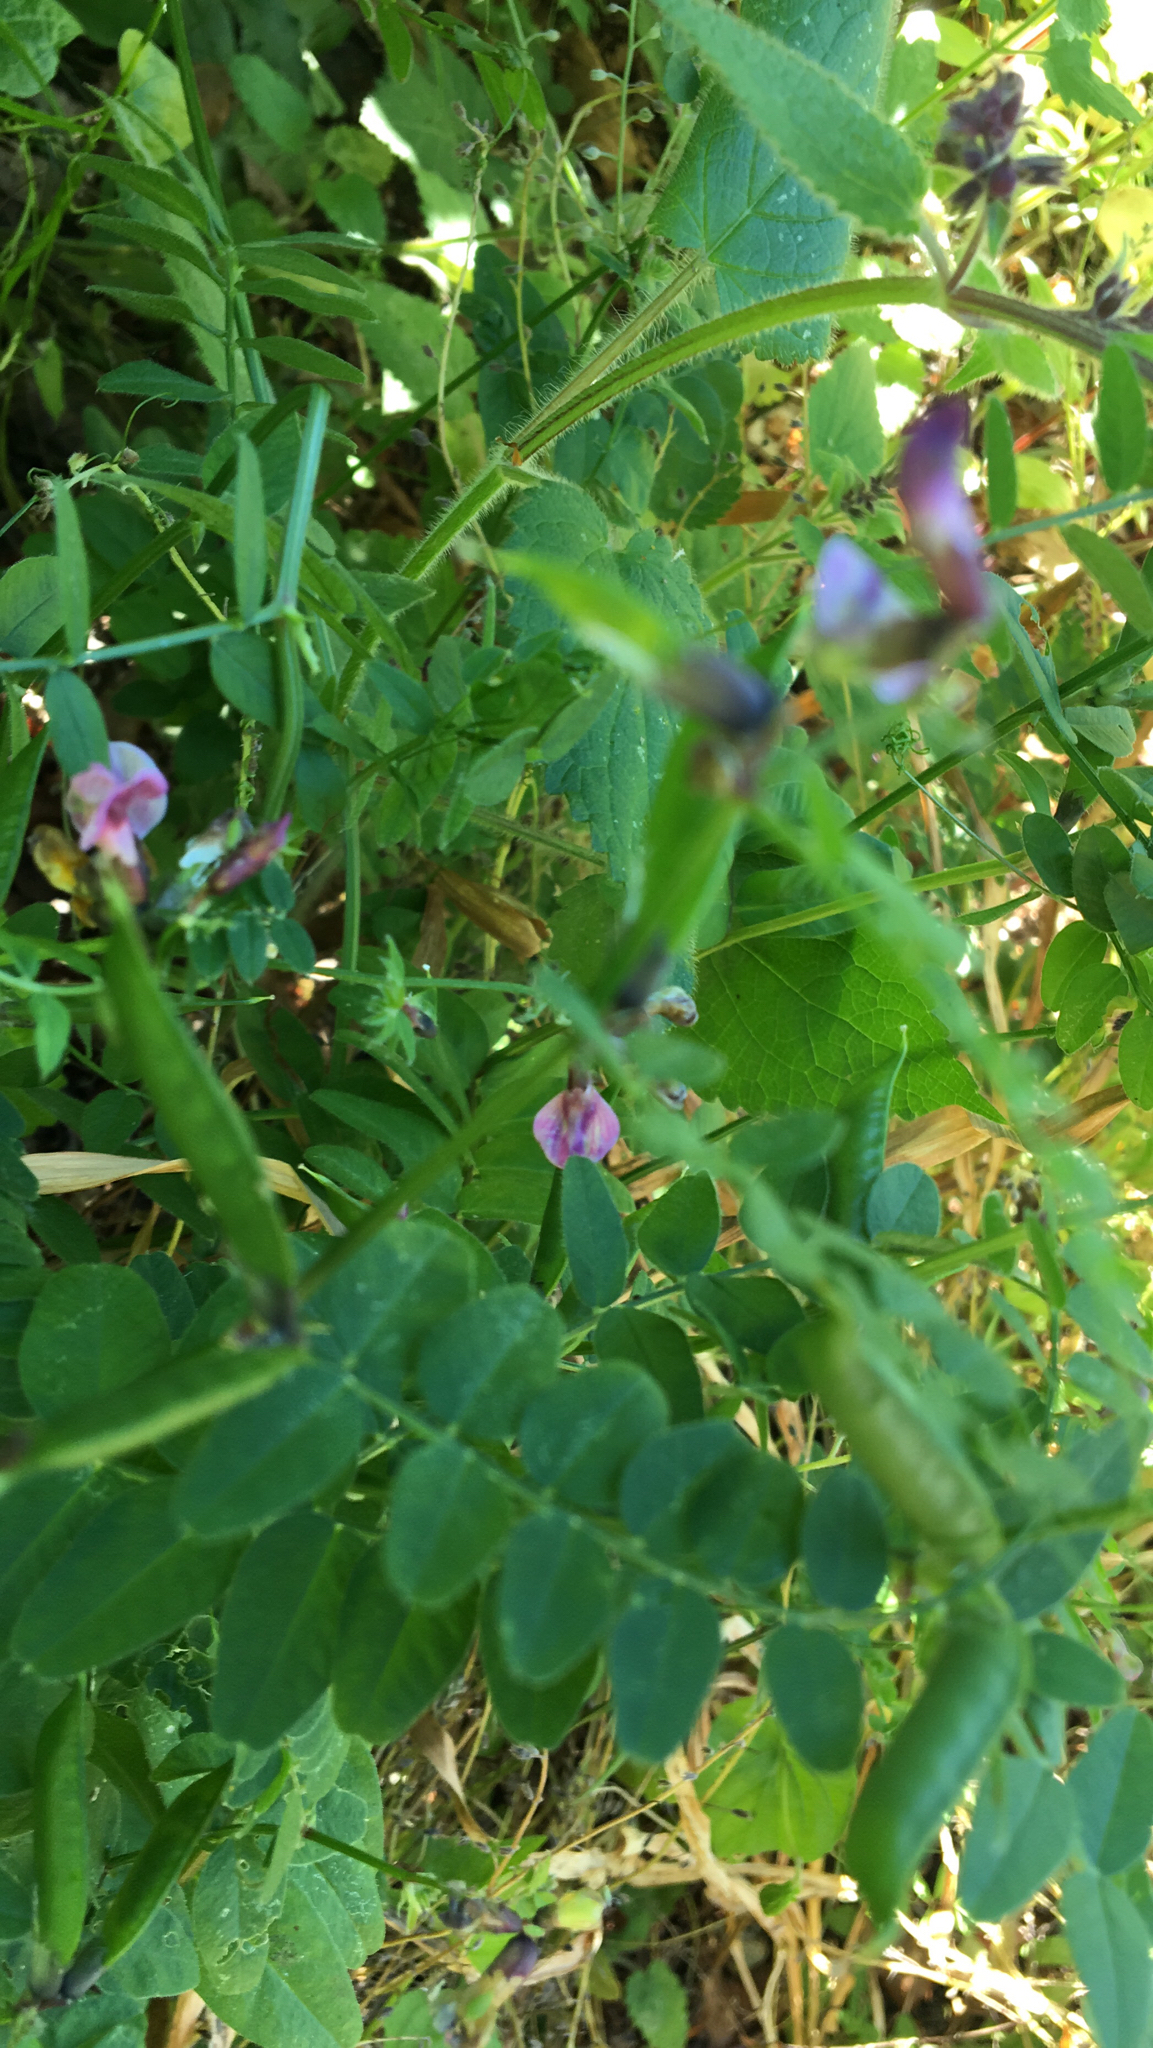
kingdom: Plantae
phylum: Tracheophyta
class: Magnoliopsida
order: Fabales
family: Fabaceae
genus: Vicia
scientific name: Vicia sepium
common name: Bush vetch
